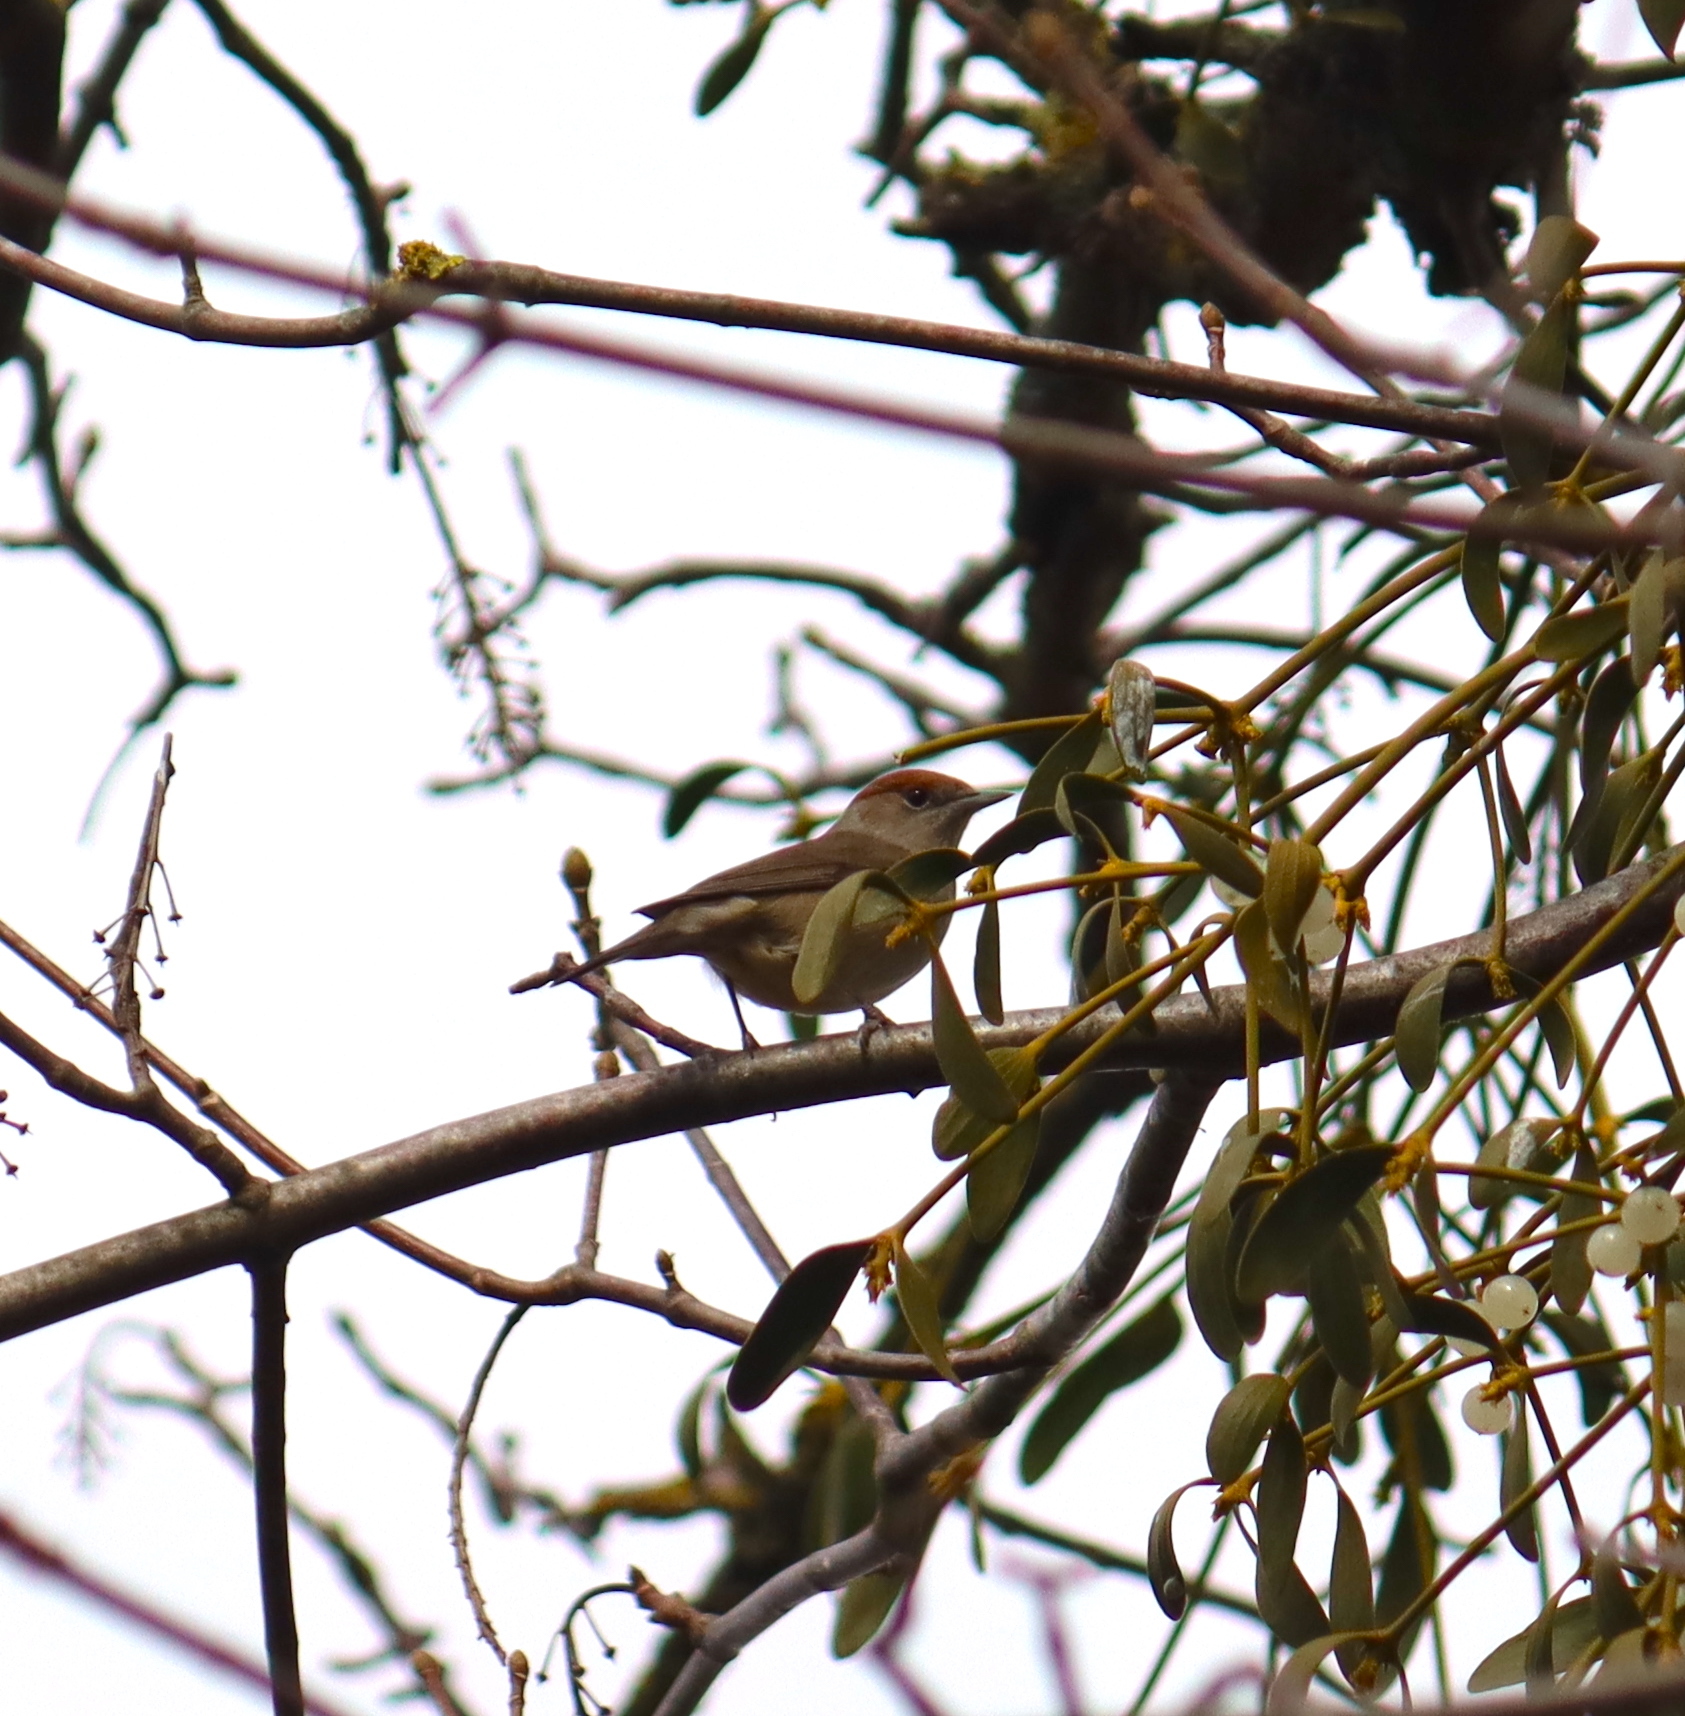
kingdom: Animalia
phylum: Chordata
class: Aves
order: Passeriformes
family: Sylviidae
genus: Sylvia
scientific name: Sylvia atricapilla
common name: Eurasian blackcap
